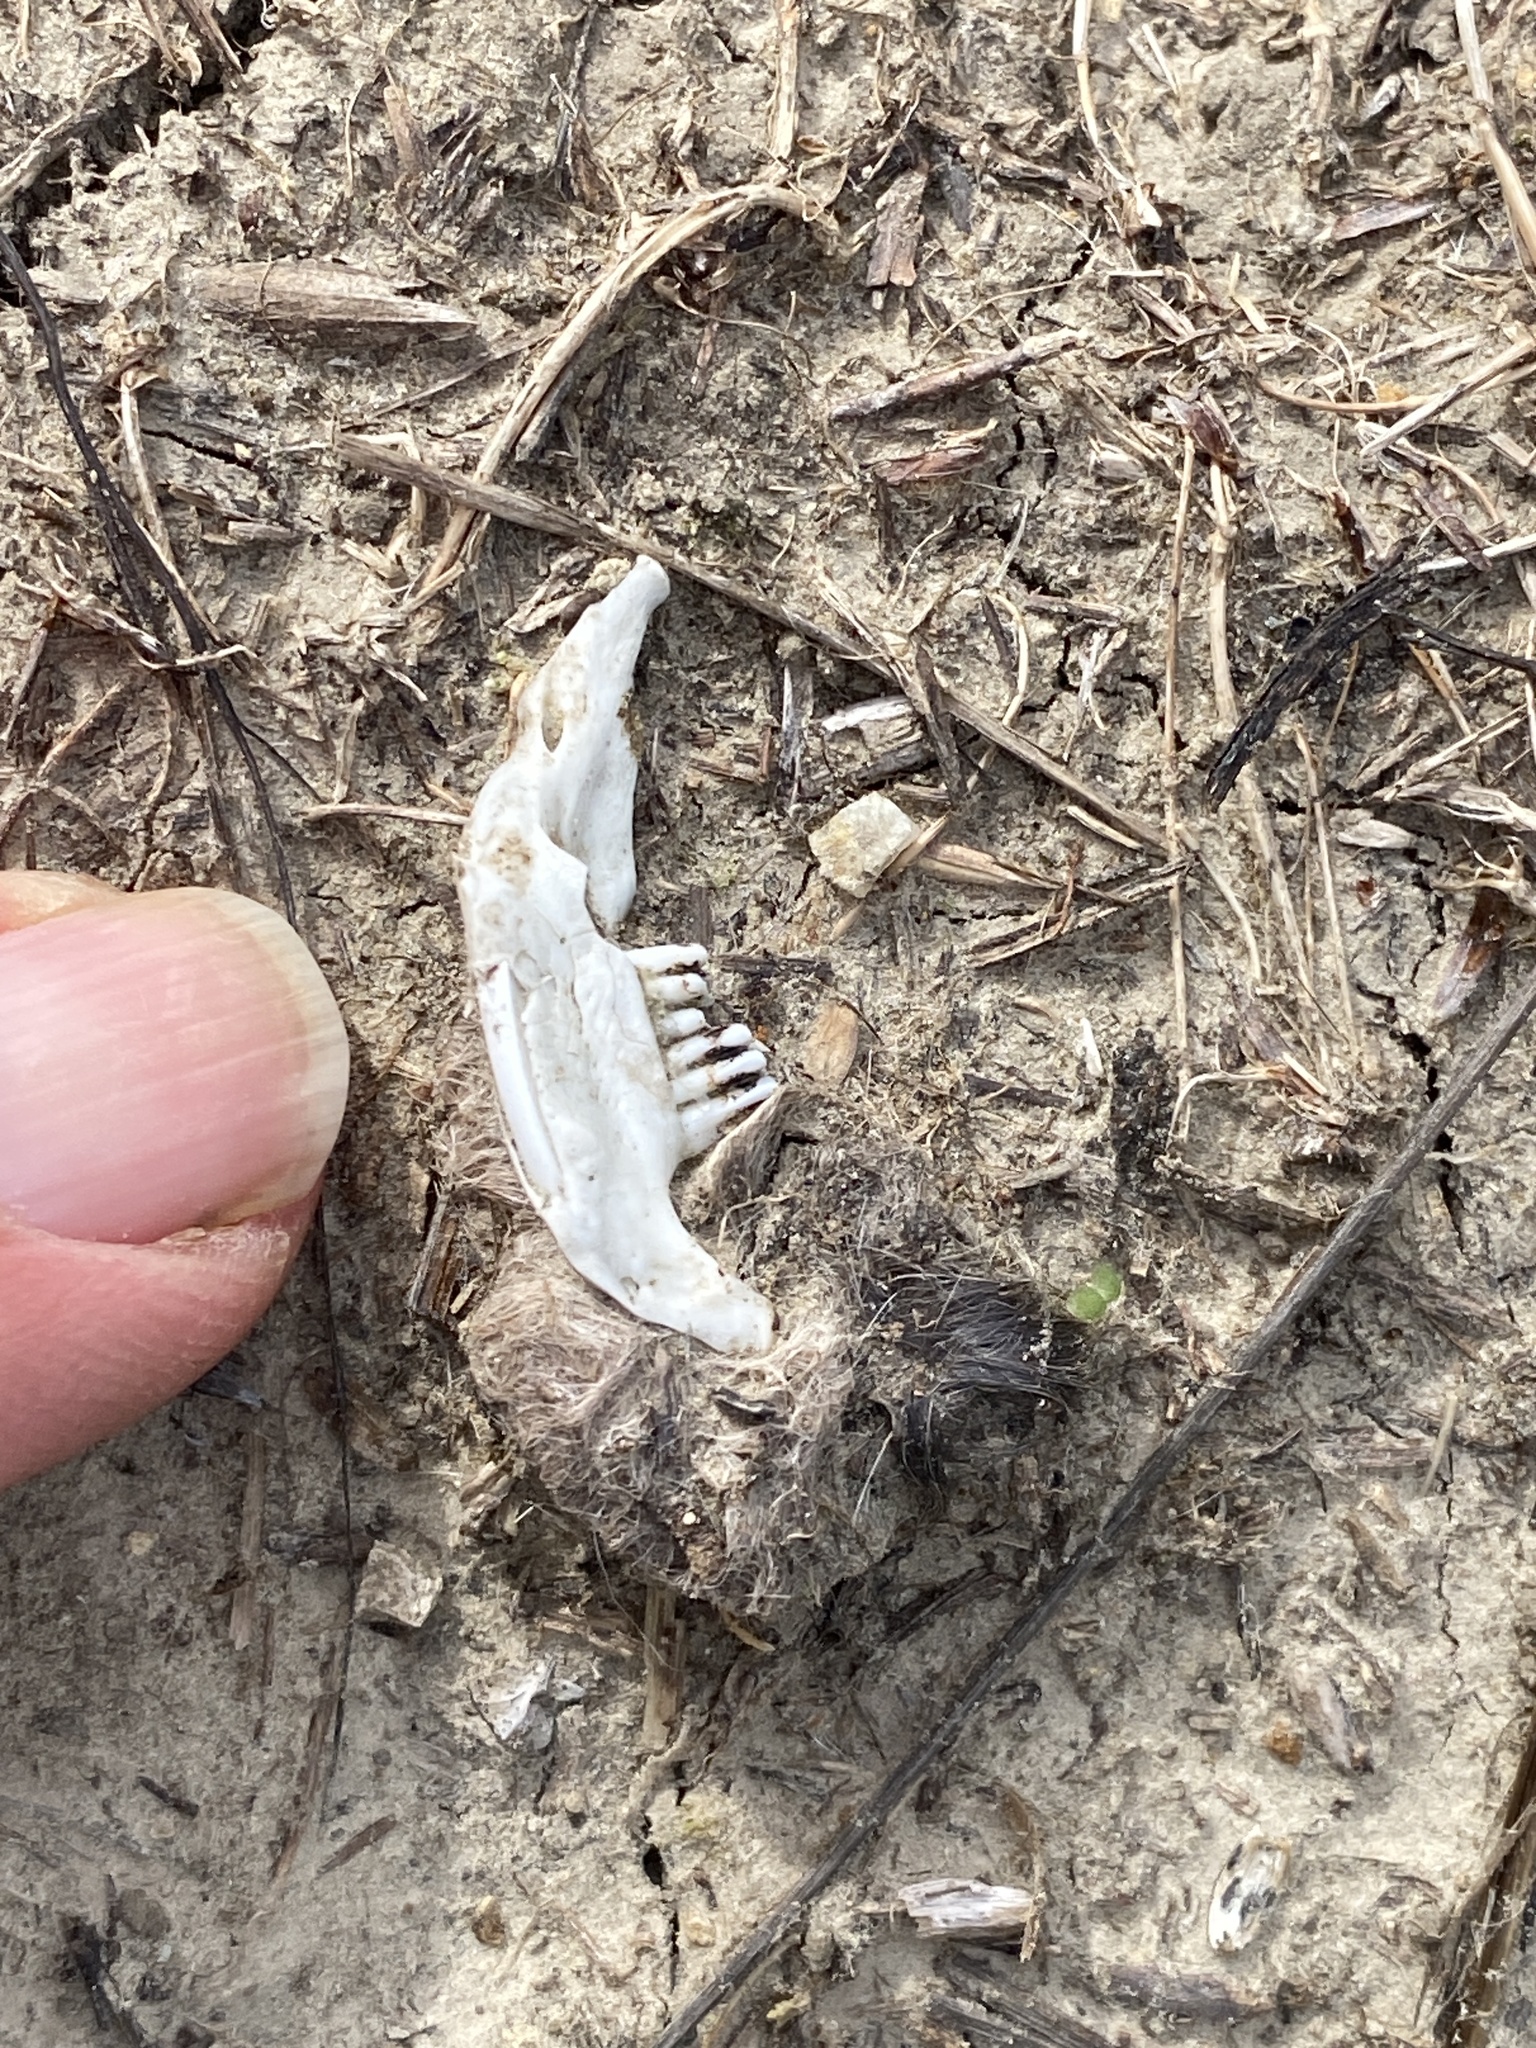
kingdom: Animalia
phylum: Chordata
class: Mammalia
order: Rodentia
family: Cricetidae
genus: Neotoma
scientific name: Neotoma fuscipes
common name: Dusky-footed woodrat
